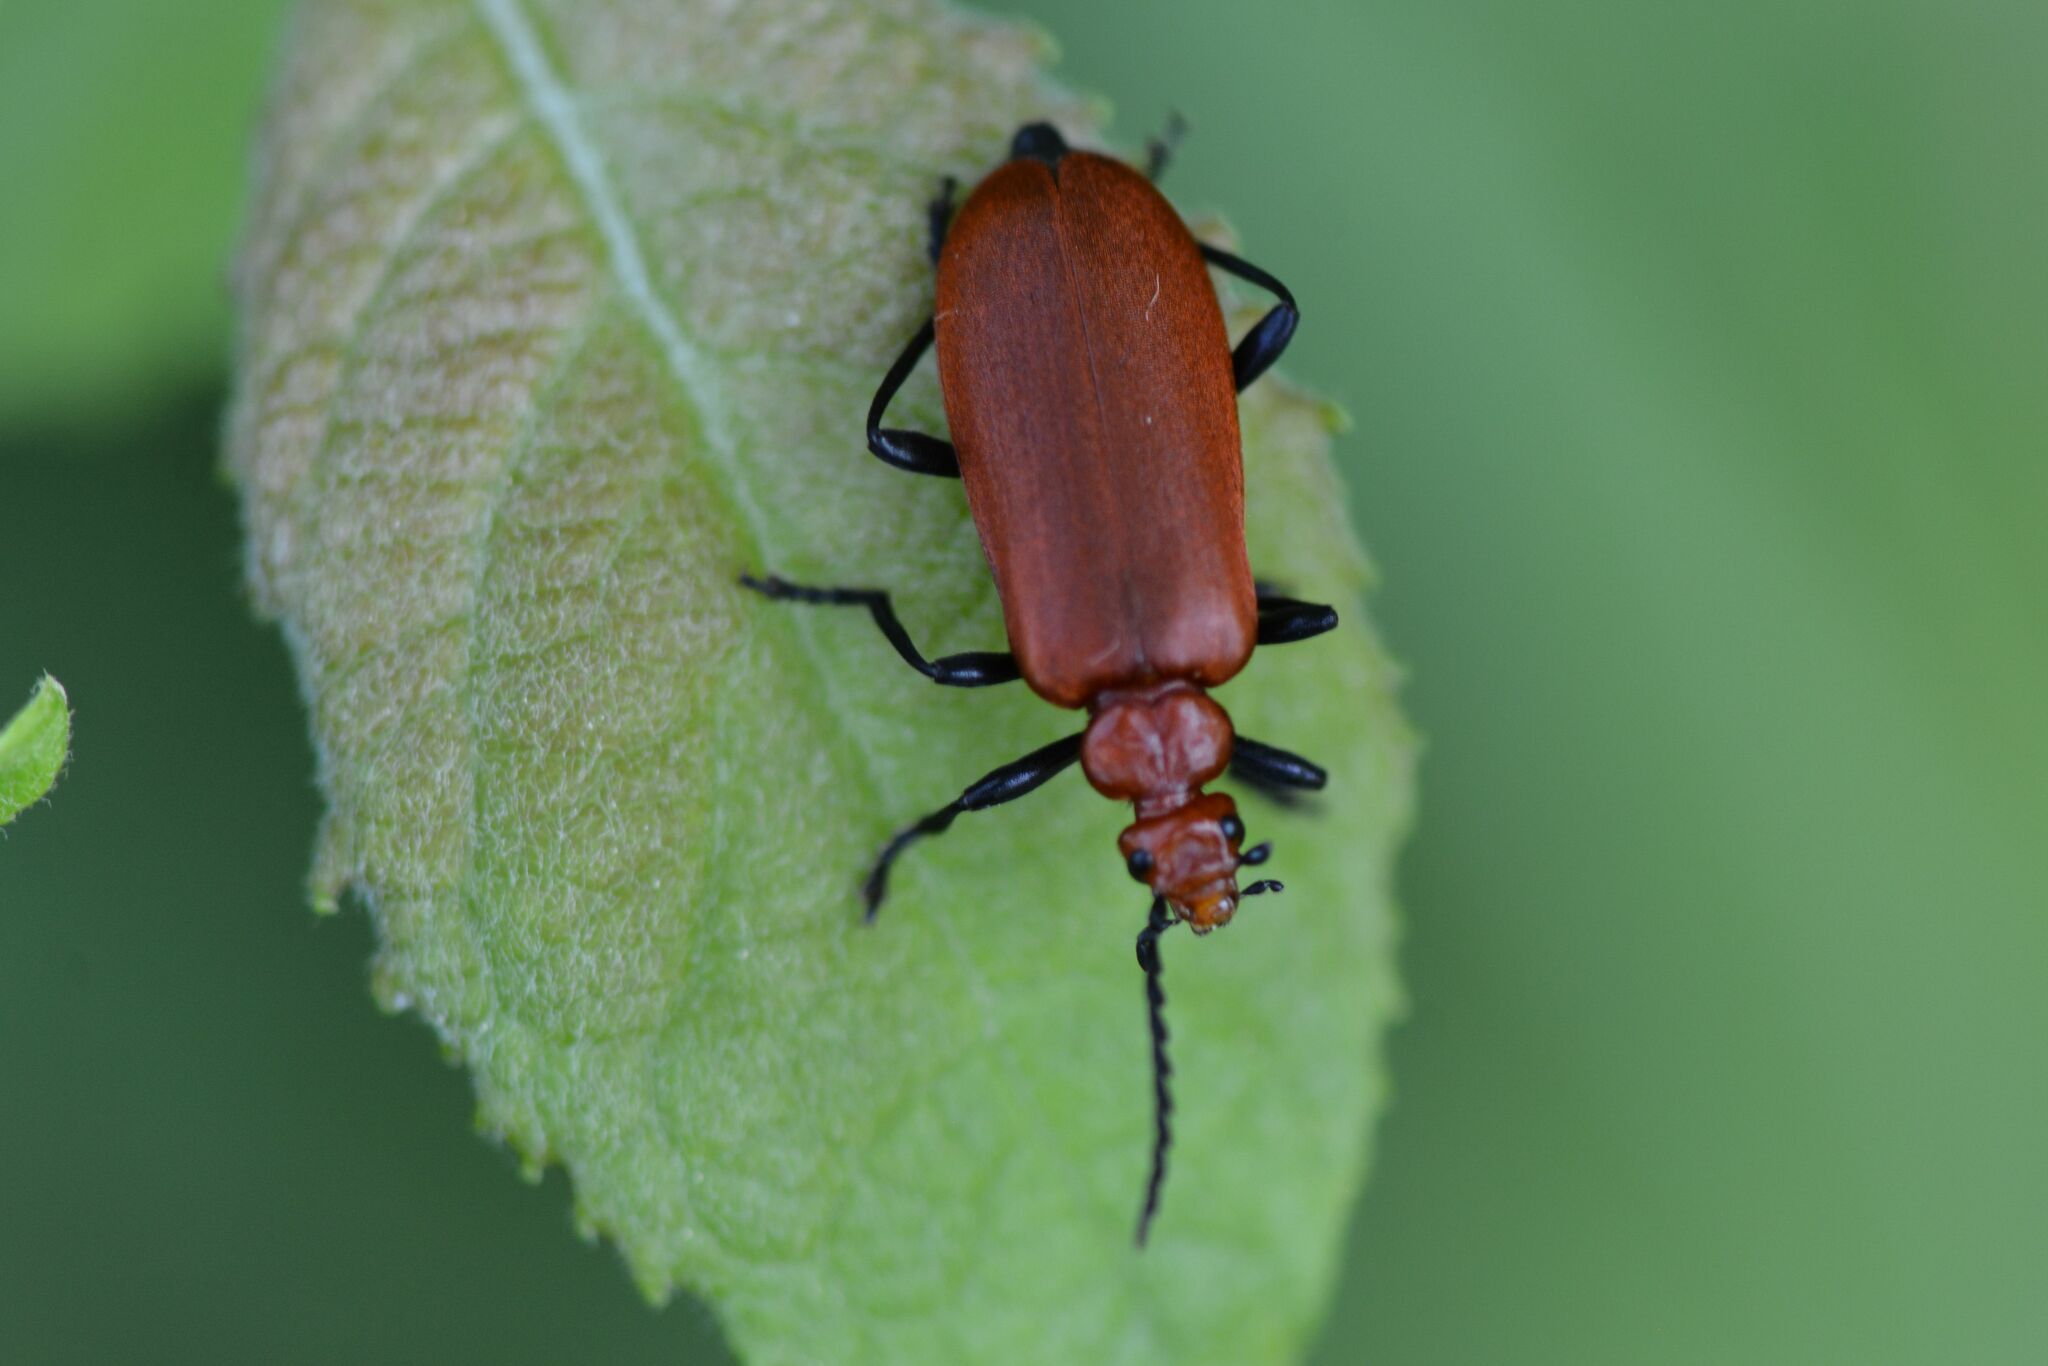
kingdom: Animalia
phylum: Arthropoda
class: Insecta
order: Coleoptera
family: Pyrochroidae
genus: Pyrochroa
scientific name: Pyrochroa serraticornis
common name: Red-headed cardinal beetle
